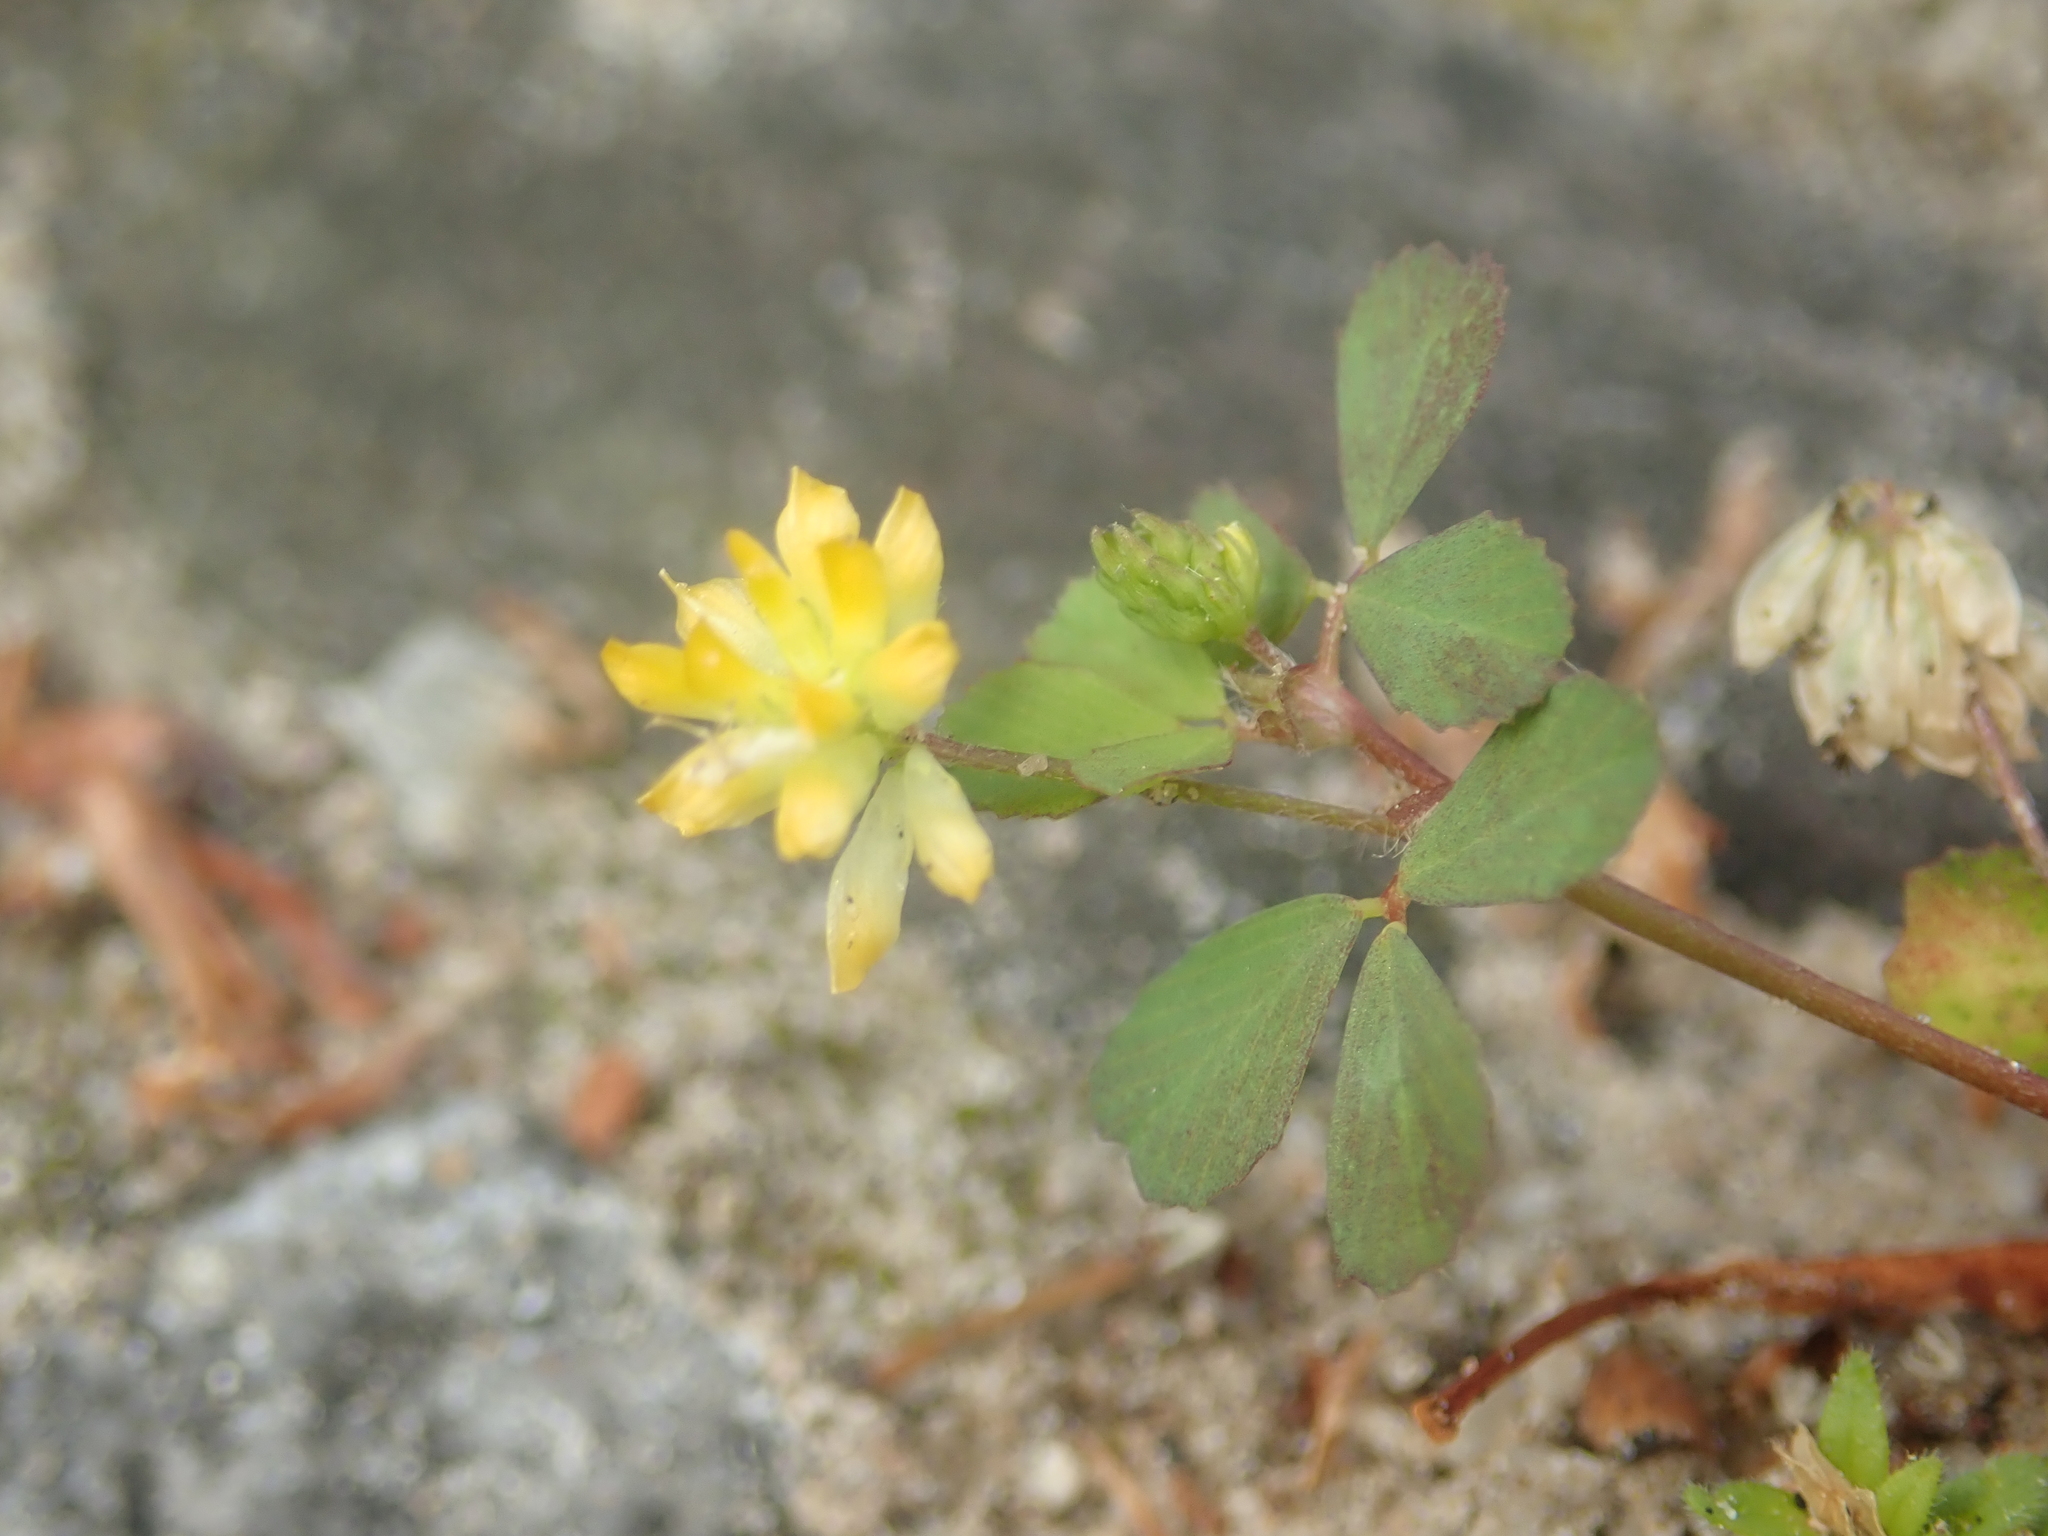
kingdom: Plantae
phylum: Tracheophyta
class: Magnoliopsida
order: Fabales
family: Fabaceae
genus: Trifolium
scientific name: Trifolium dubium
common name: Suckling clover
